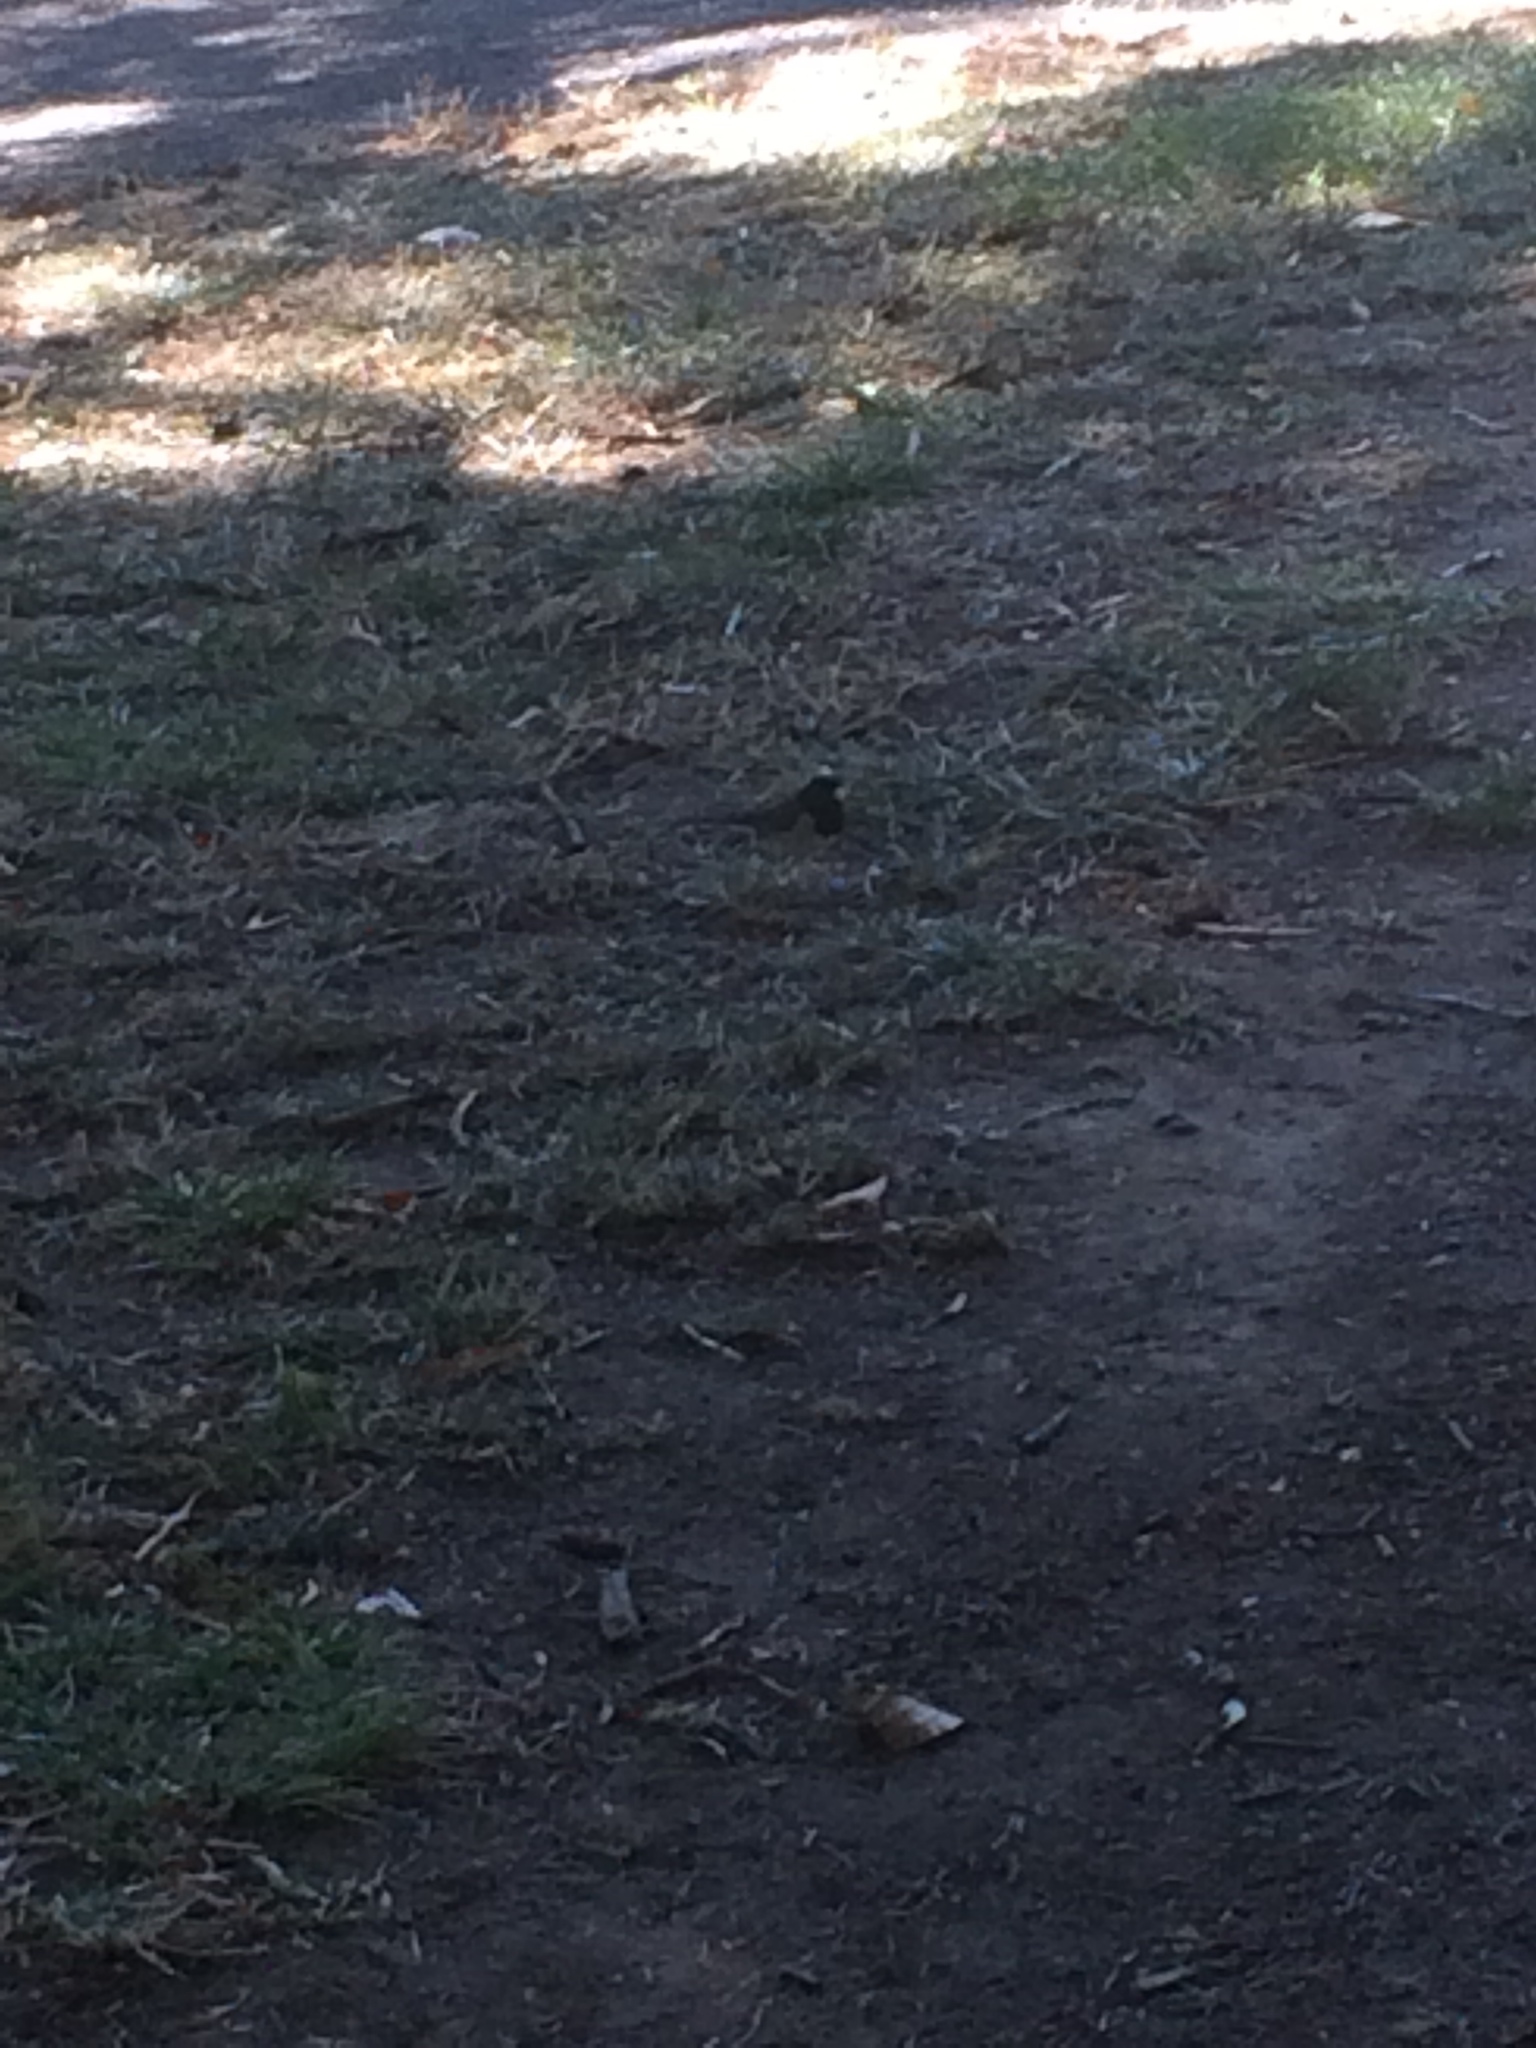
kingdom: Animalia
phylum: Chordata
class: Aves
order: Passeriformes
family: Passerellidae
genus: Junco
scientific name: Junco hyemalis
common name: Dark-eyed junco
